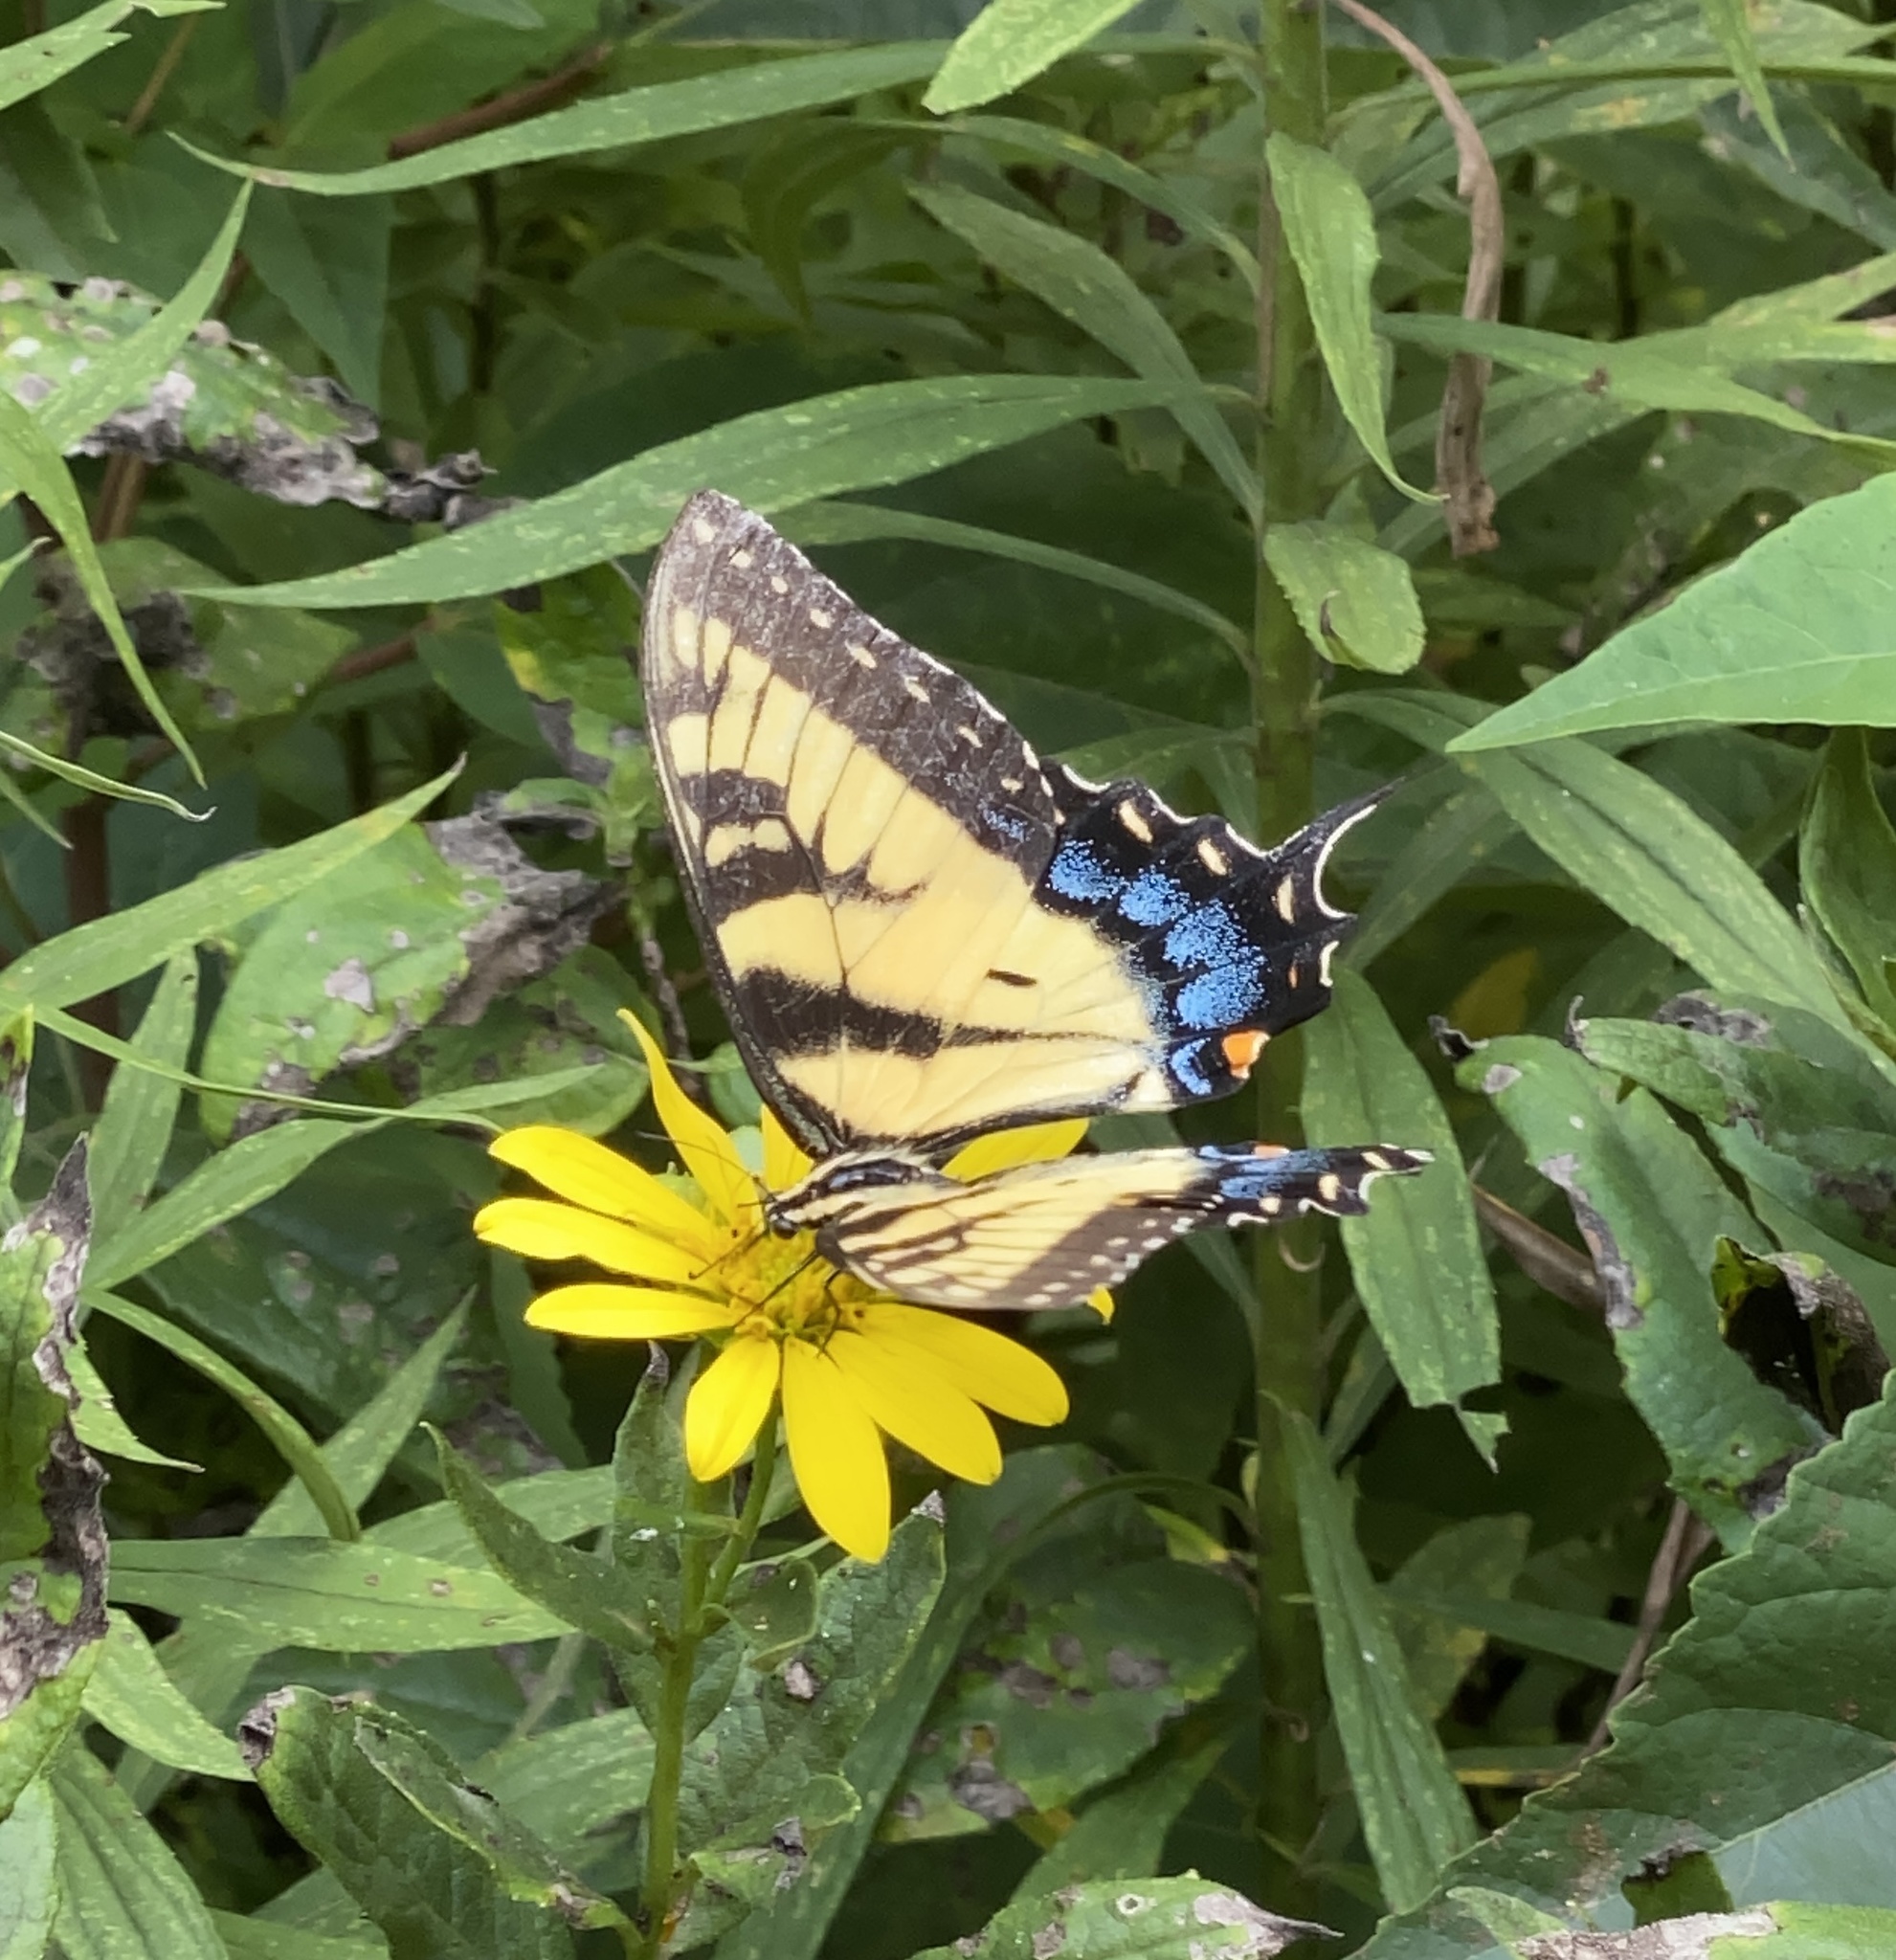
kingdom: Animalia
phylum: Arthropoda
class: Insecta
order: Lepidoptera
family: Papilionidae
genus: Papilio
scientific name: Papilio glaucus
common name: Tiger swallowtail
